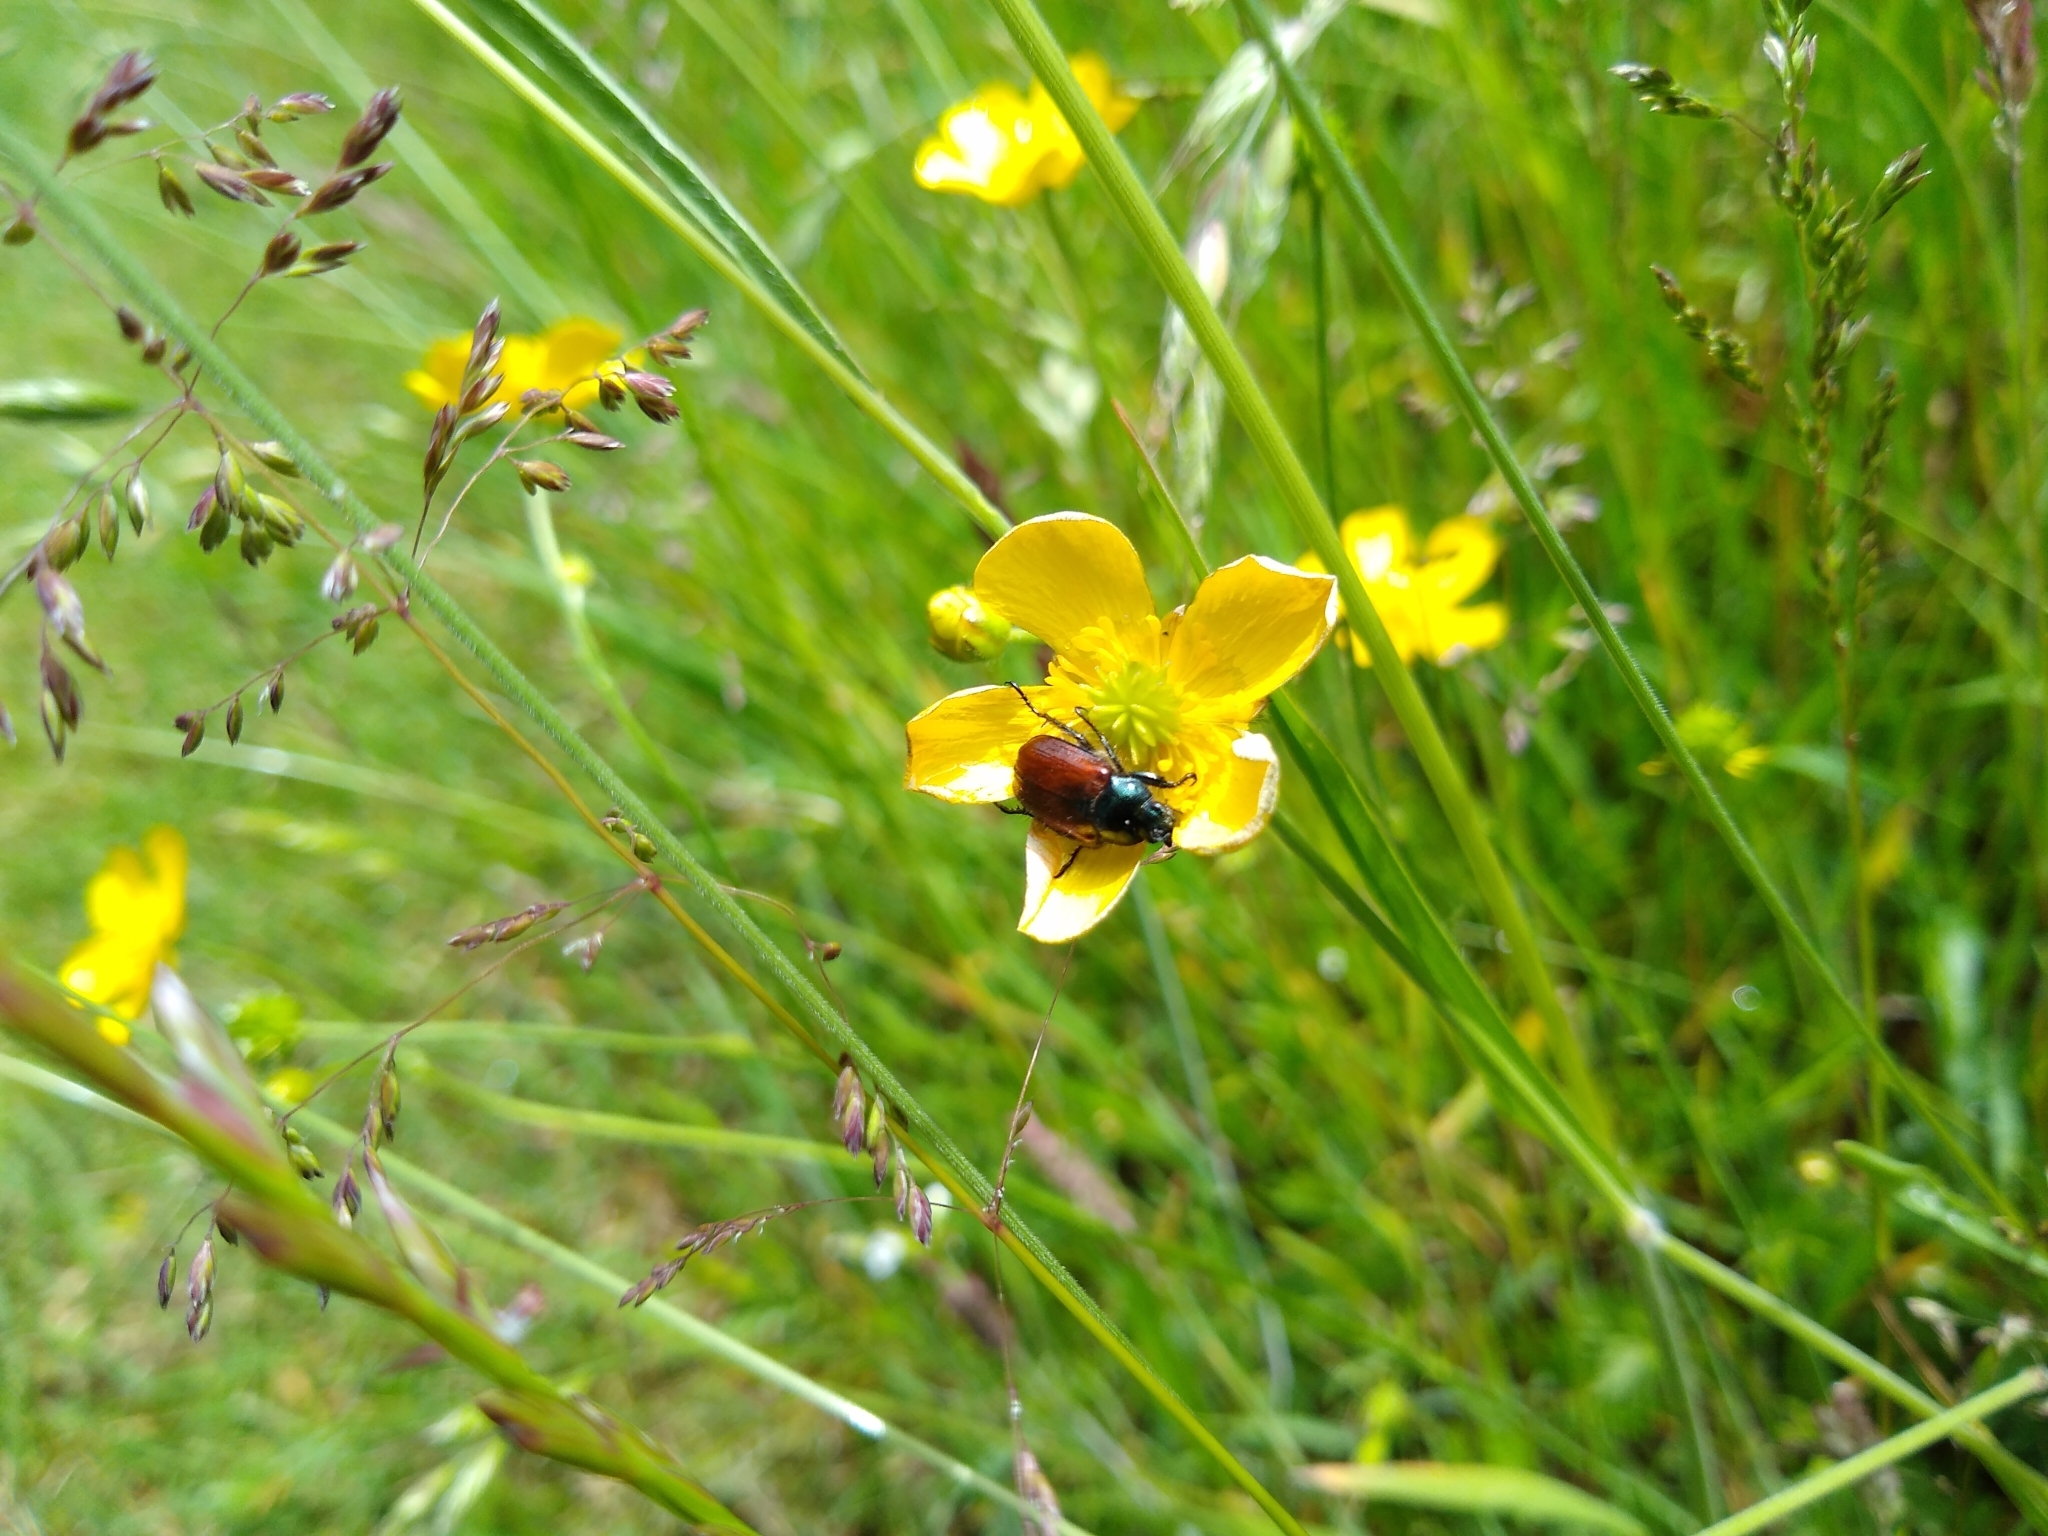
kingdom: Animalia
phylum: Arthropoda
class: Insecta
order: Coleoptera
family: Scarabaeidae
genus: Phyllopertha
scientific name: Phyllopertha horticola
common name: Garden chafer
